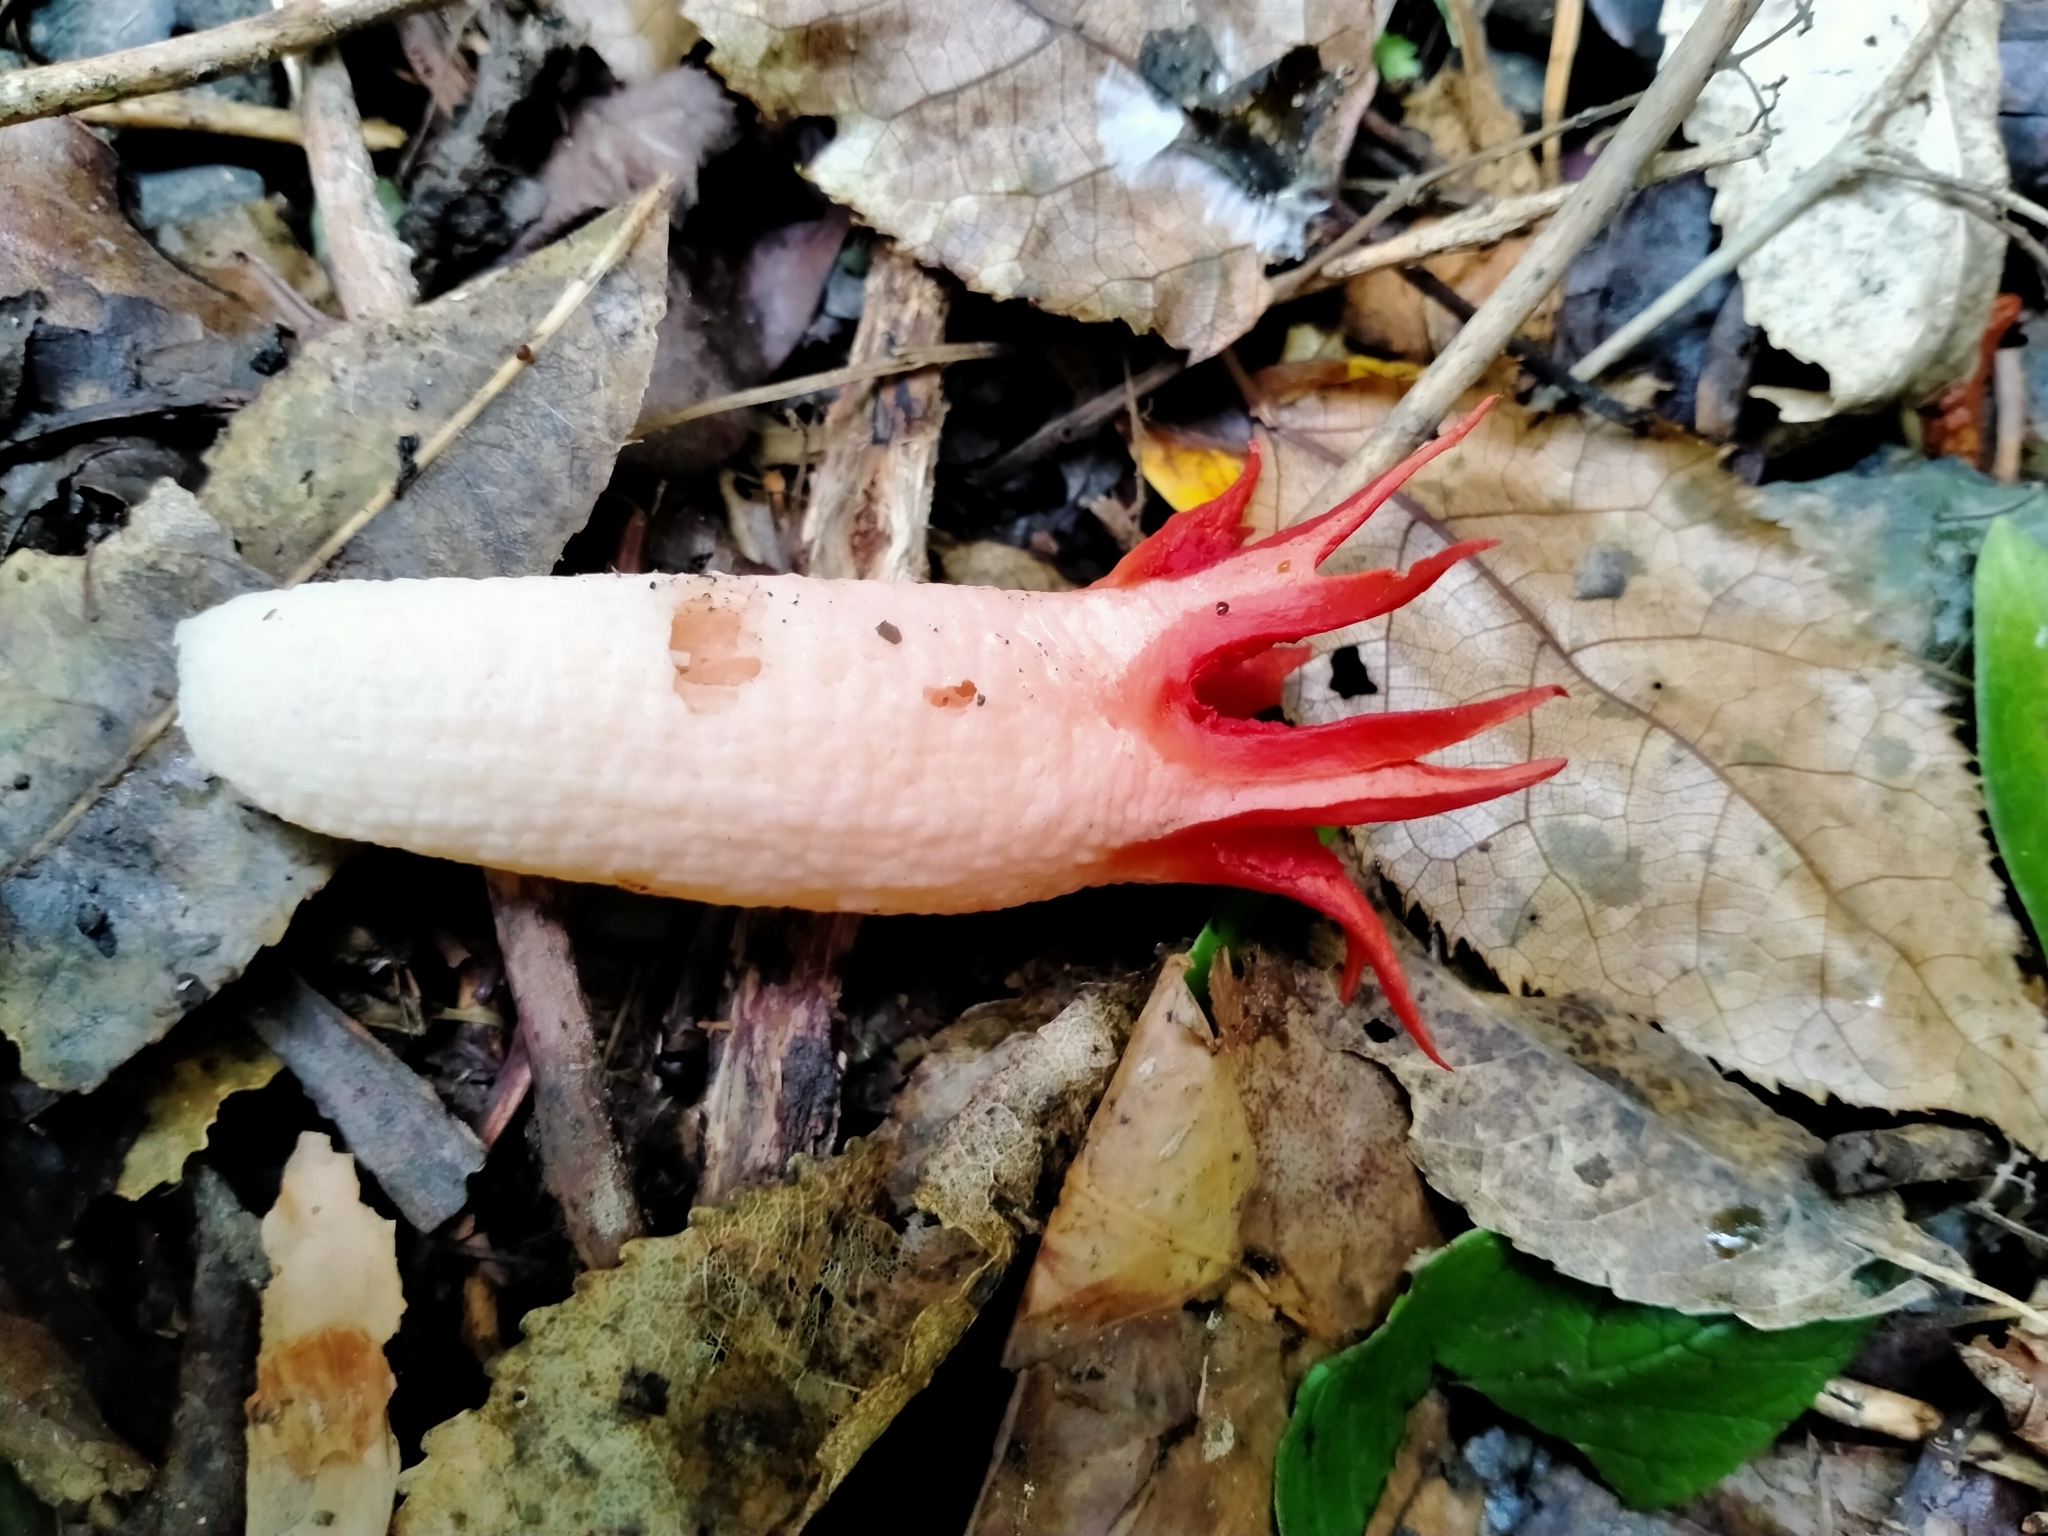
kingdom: Fungi
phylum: Basidiomycota
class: Agaricomycetes
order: Phallales
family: Phallaceae
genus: Aseroe
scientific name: Aseroe rubra
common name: Starfish fungus
